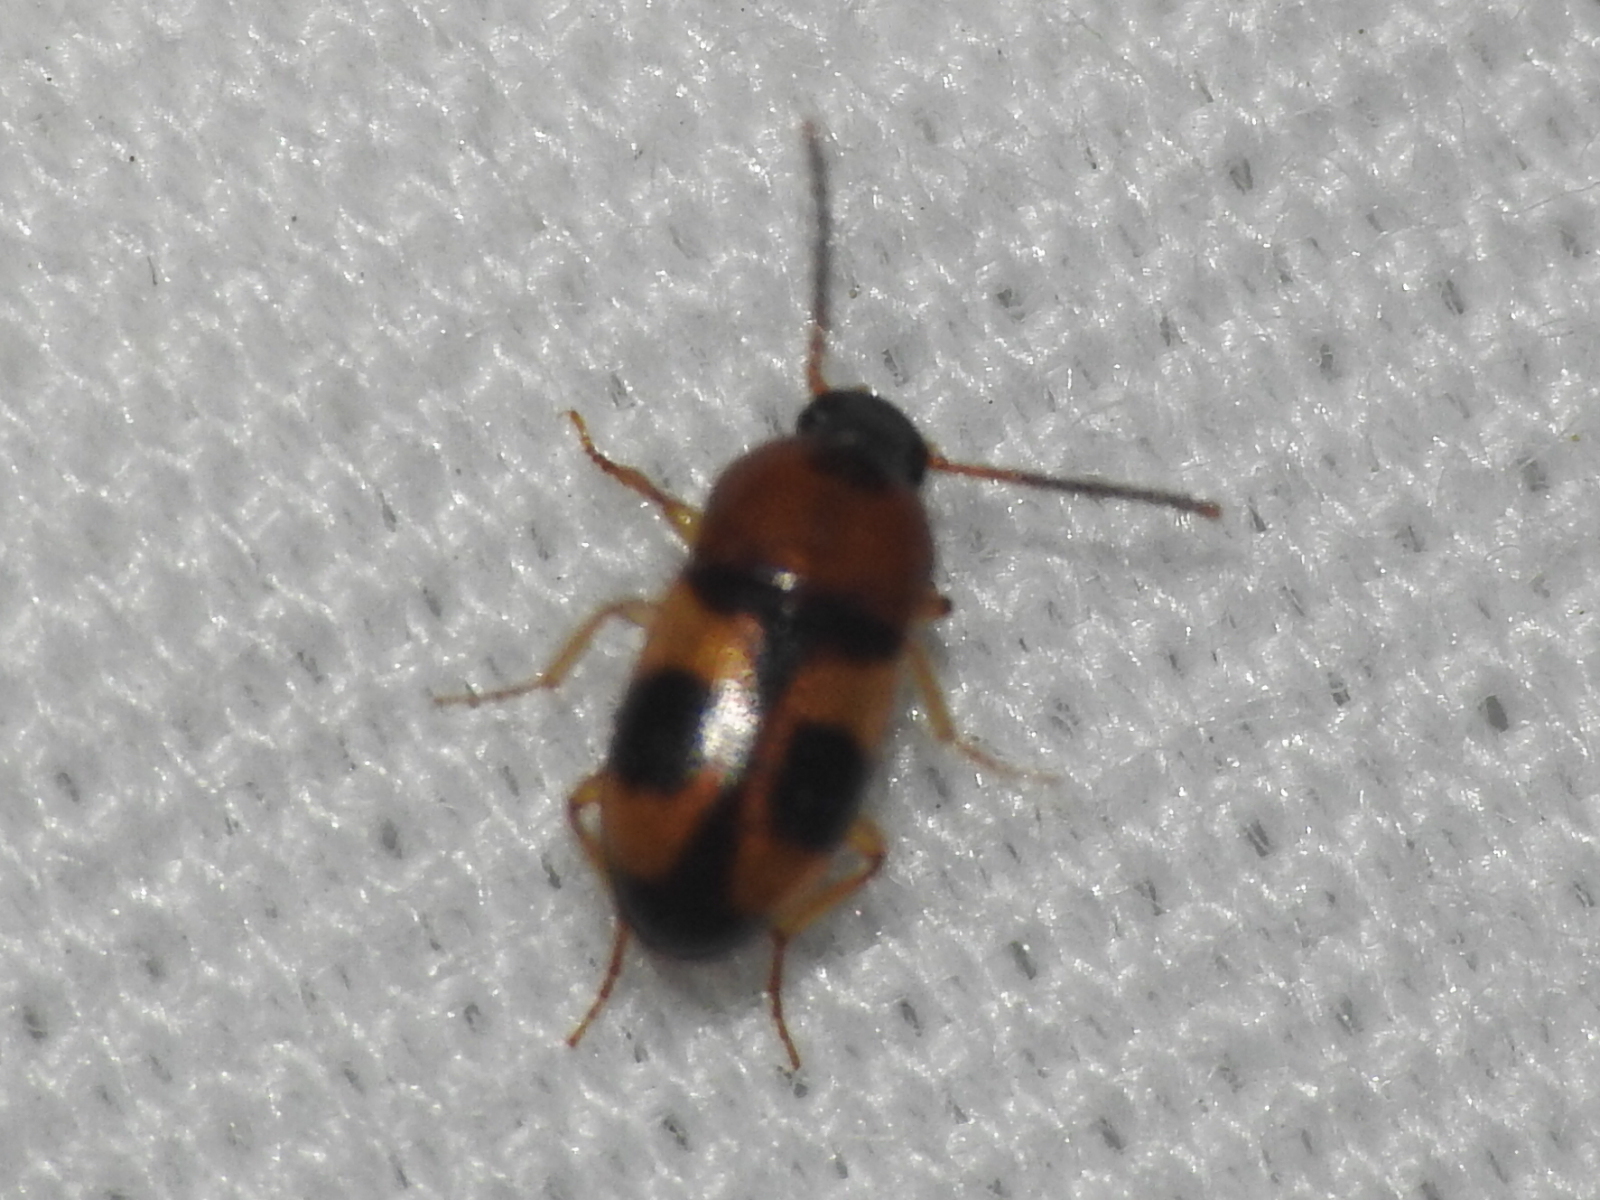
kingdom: Animalia
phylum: Arthropoda
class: Insecta
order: Coleoptera
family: Tenebrionidae
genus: Poecilocrypticus
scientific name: Poecilocrypticus formicophilus
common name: Darkling beetle
